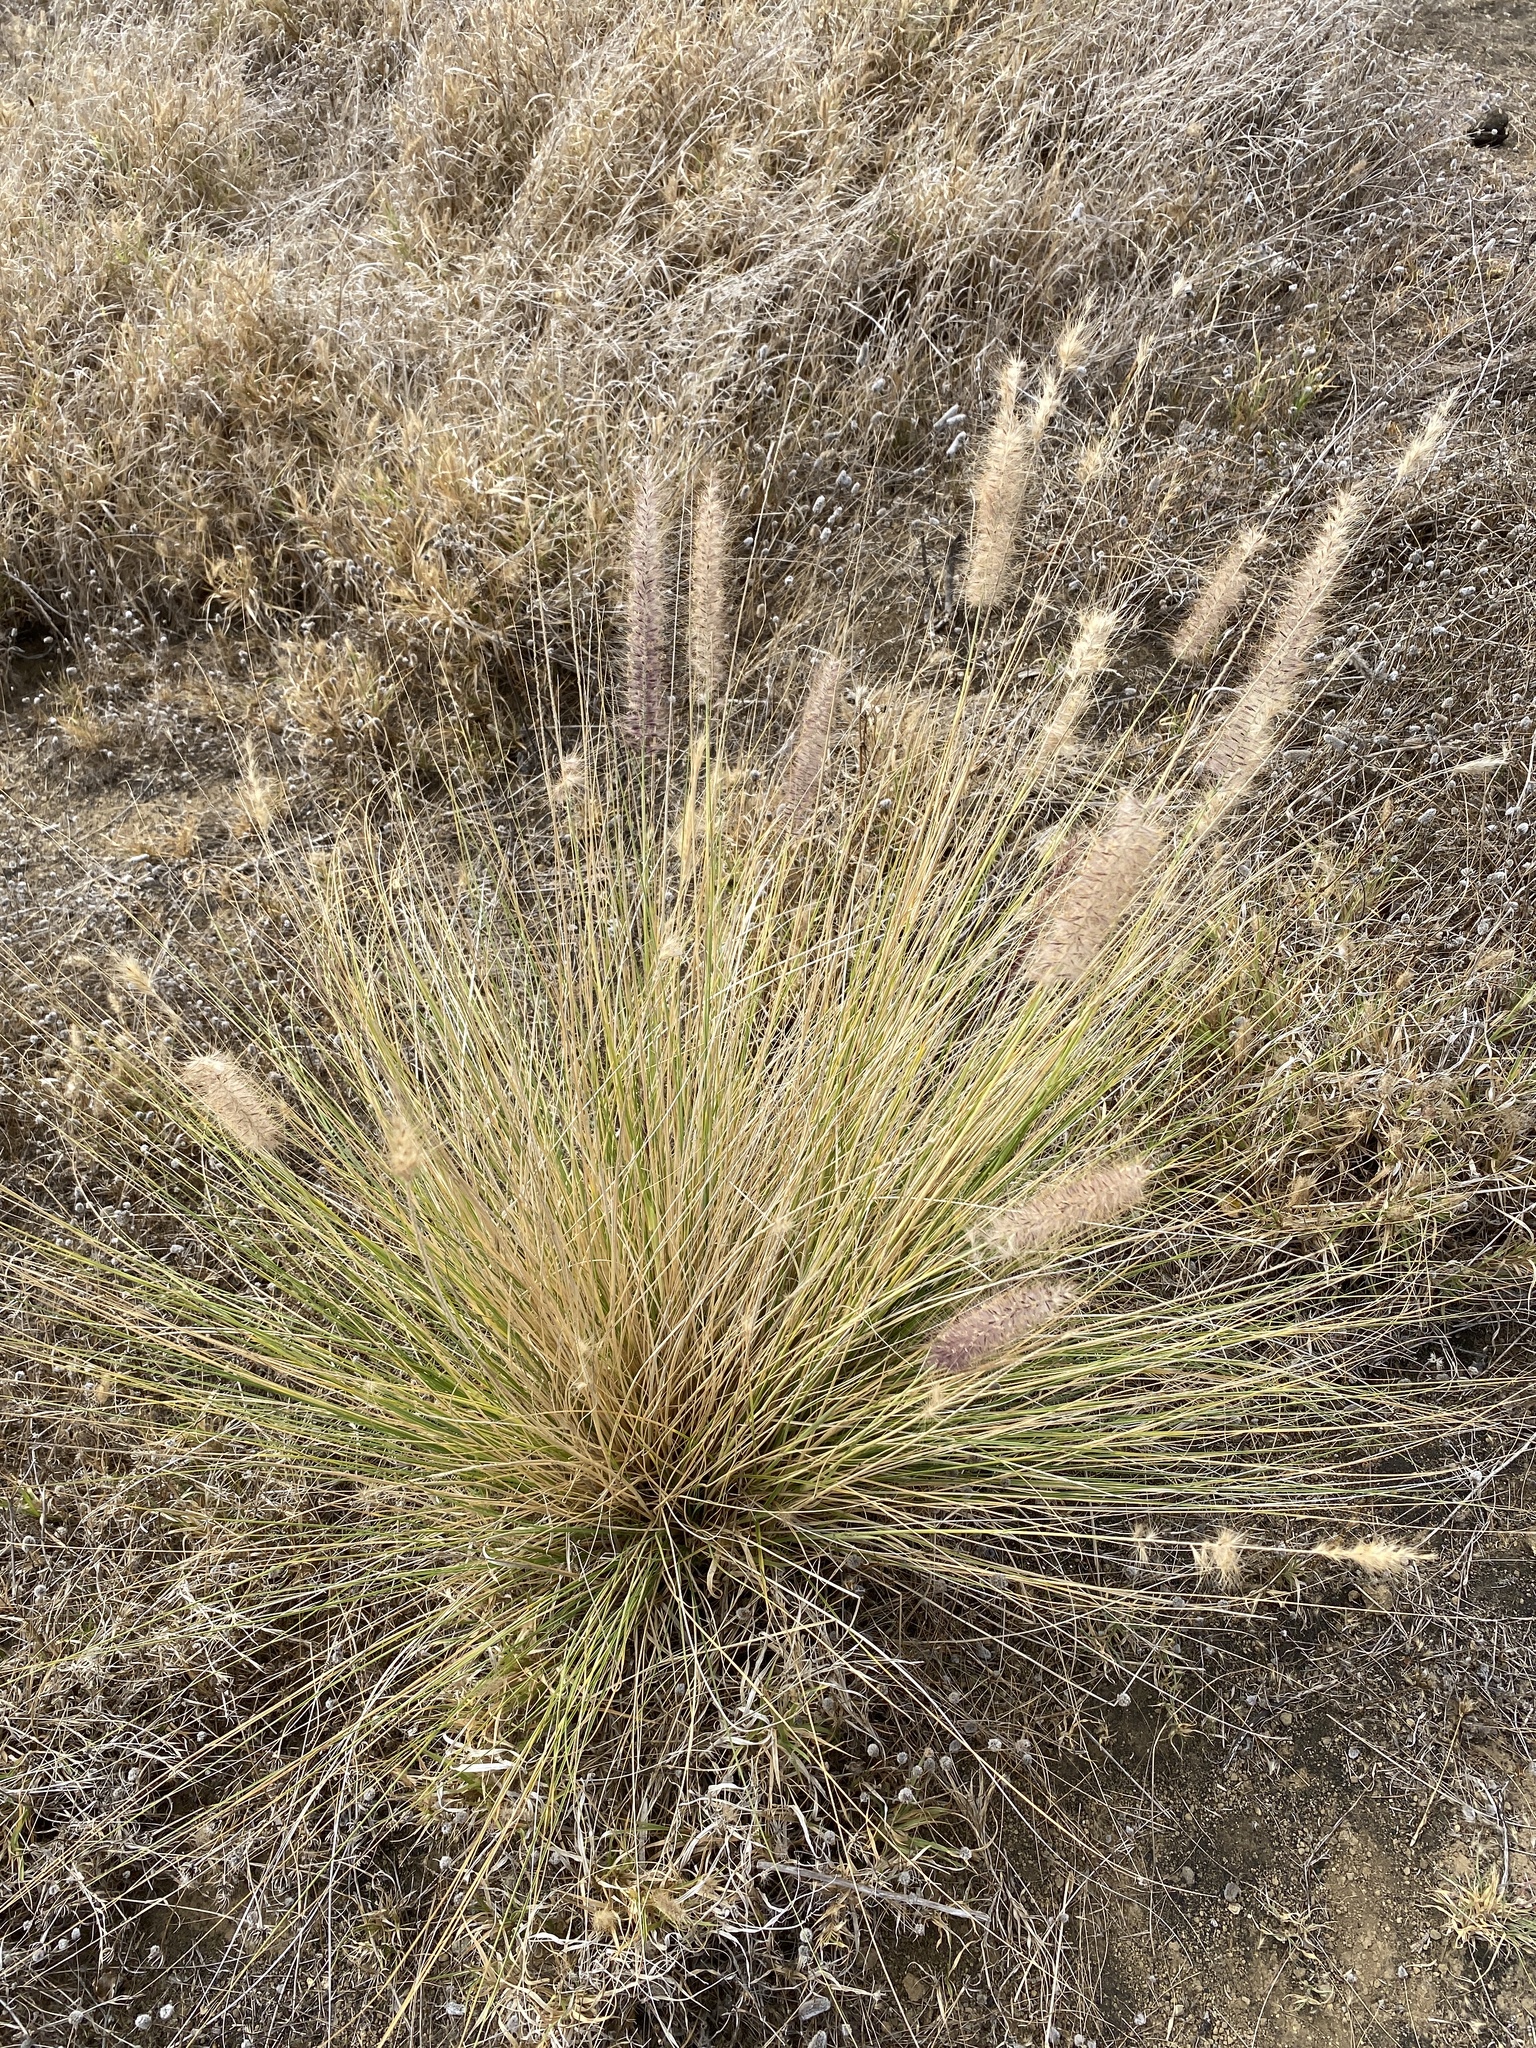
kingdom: Plantae
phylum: Tracheophyta
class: Liliopsida
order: Poales
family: Poaceae
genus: Cenchrus
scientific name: Cenchrus setaceus
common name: Crimson fountaingrass
